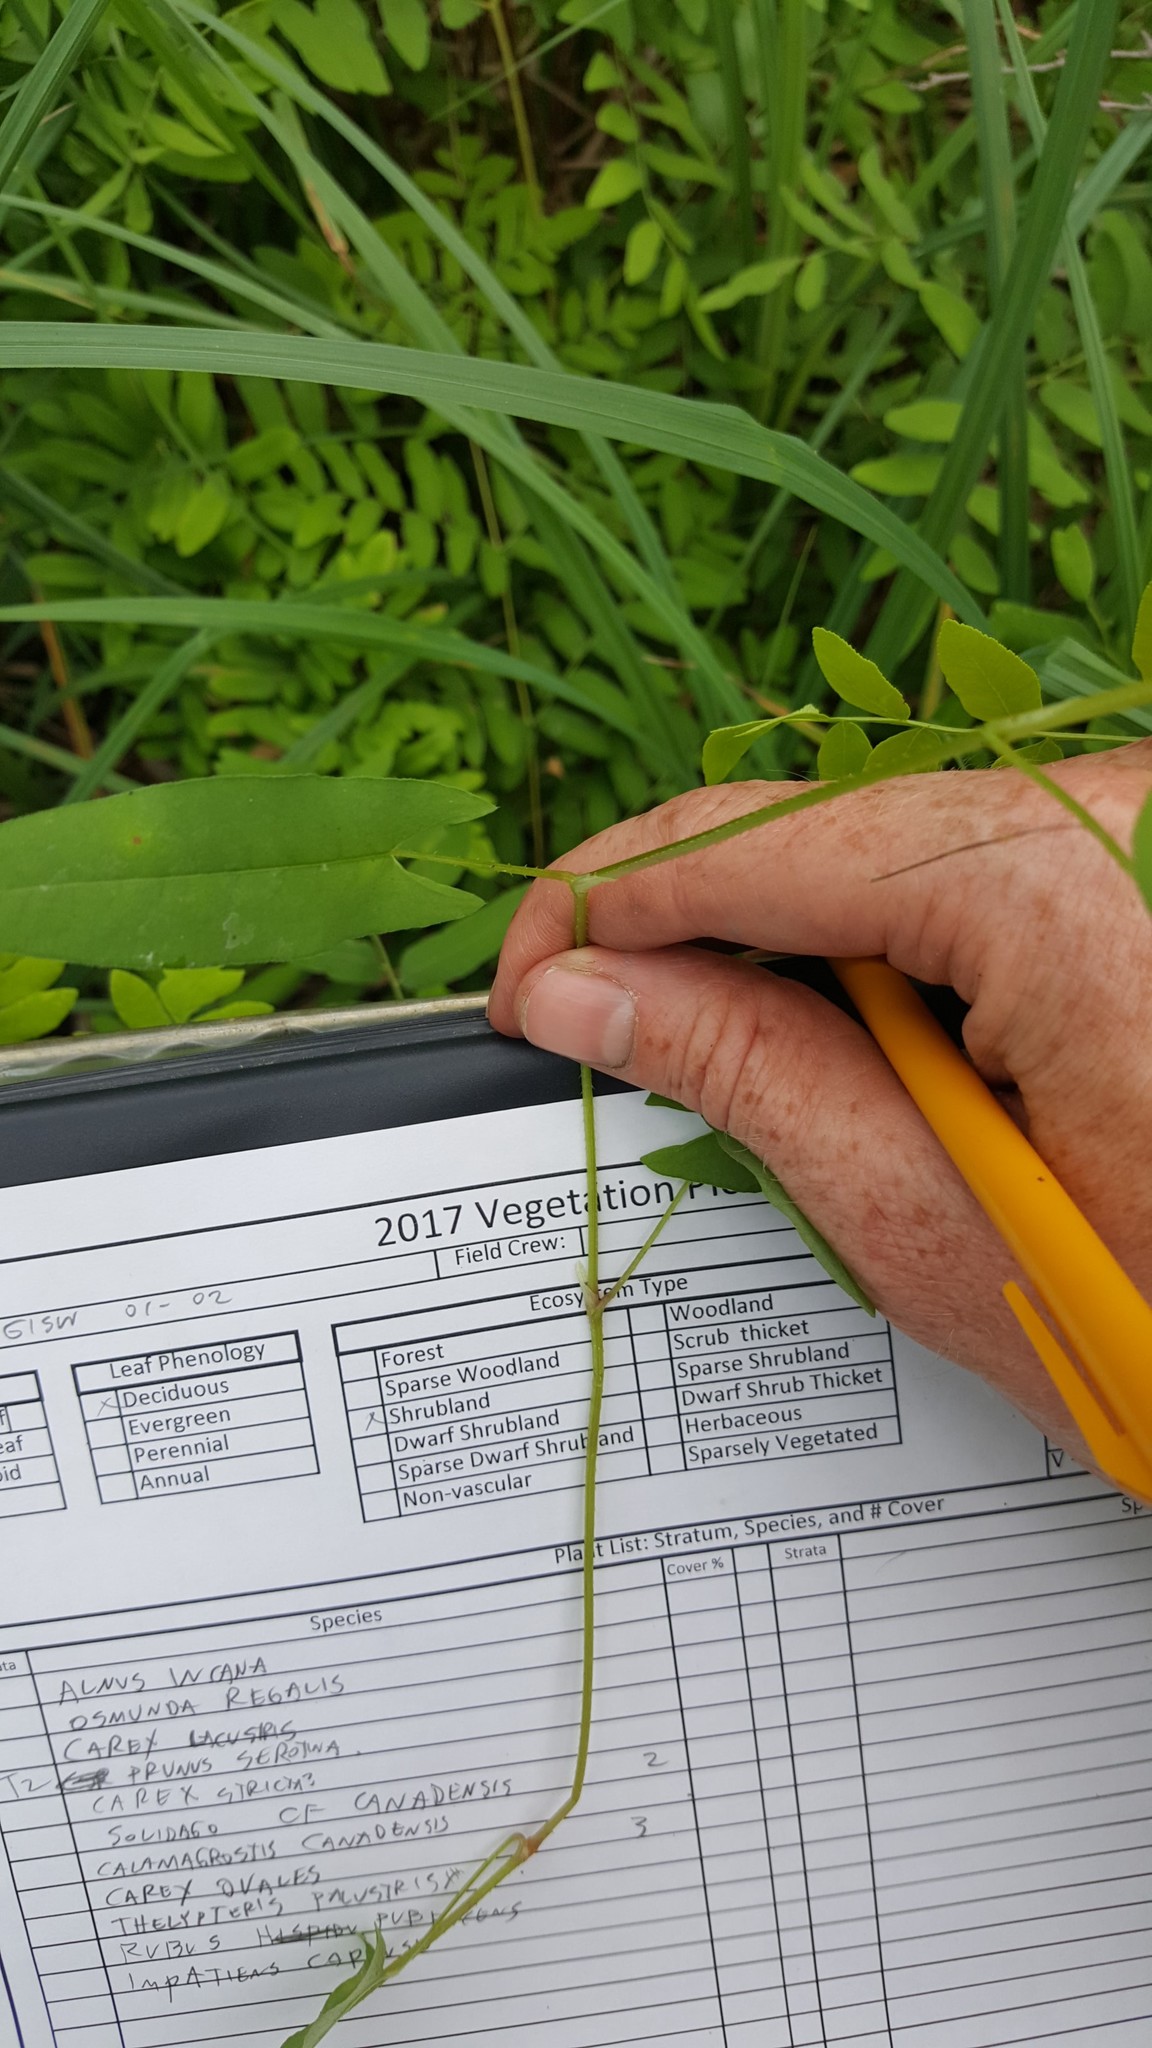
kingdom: Plantae
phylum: Tracheophyta
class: Magnoliopsida
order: Caryophyllales
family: Polygonaceae
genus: Persicaria
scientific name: Persicaria sagittata
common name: American tearthumb
